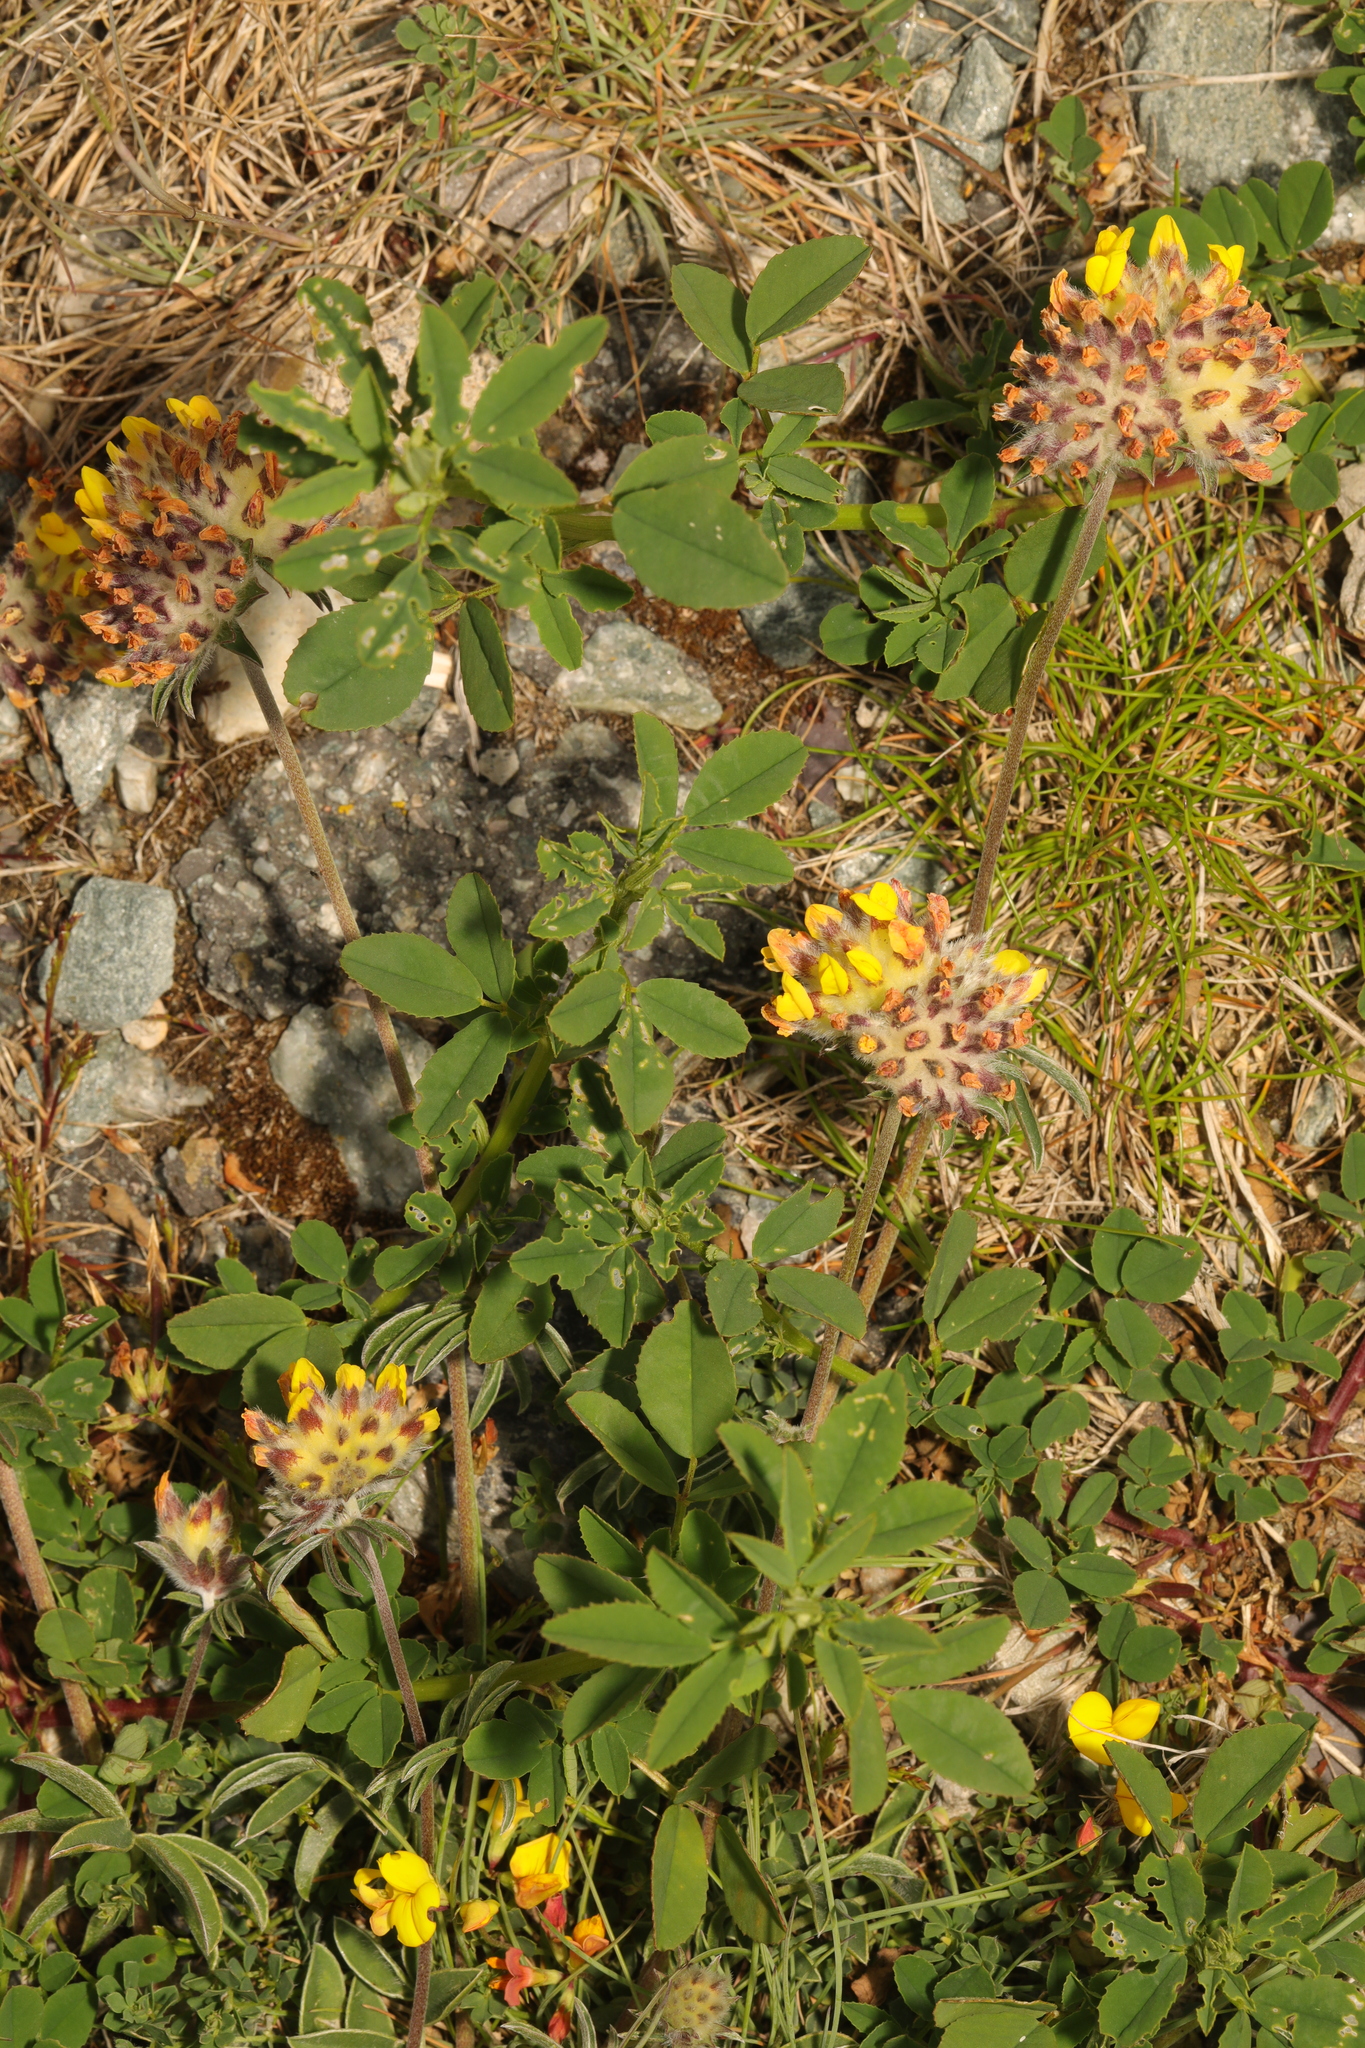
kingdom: Plantae
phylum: Tracheophyta
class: Magnoliopsida
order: Fabales
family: Fabaceae
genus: Anthyllis
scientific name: Anthyllis vulneraria
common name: Kidney vetch
